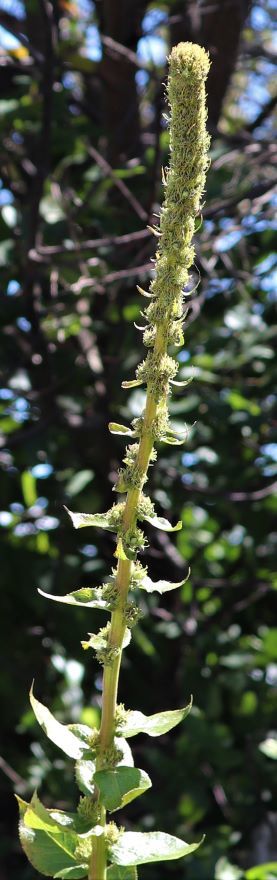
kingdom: Plantae
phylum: Tracheophyta
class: Magnoliopsida
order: Asterales
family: Campanulaceae
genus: Cyphia
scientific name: Cyphia elata
